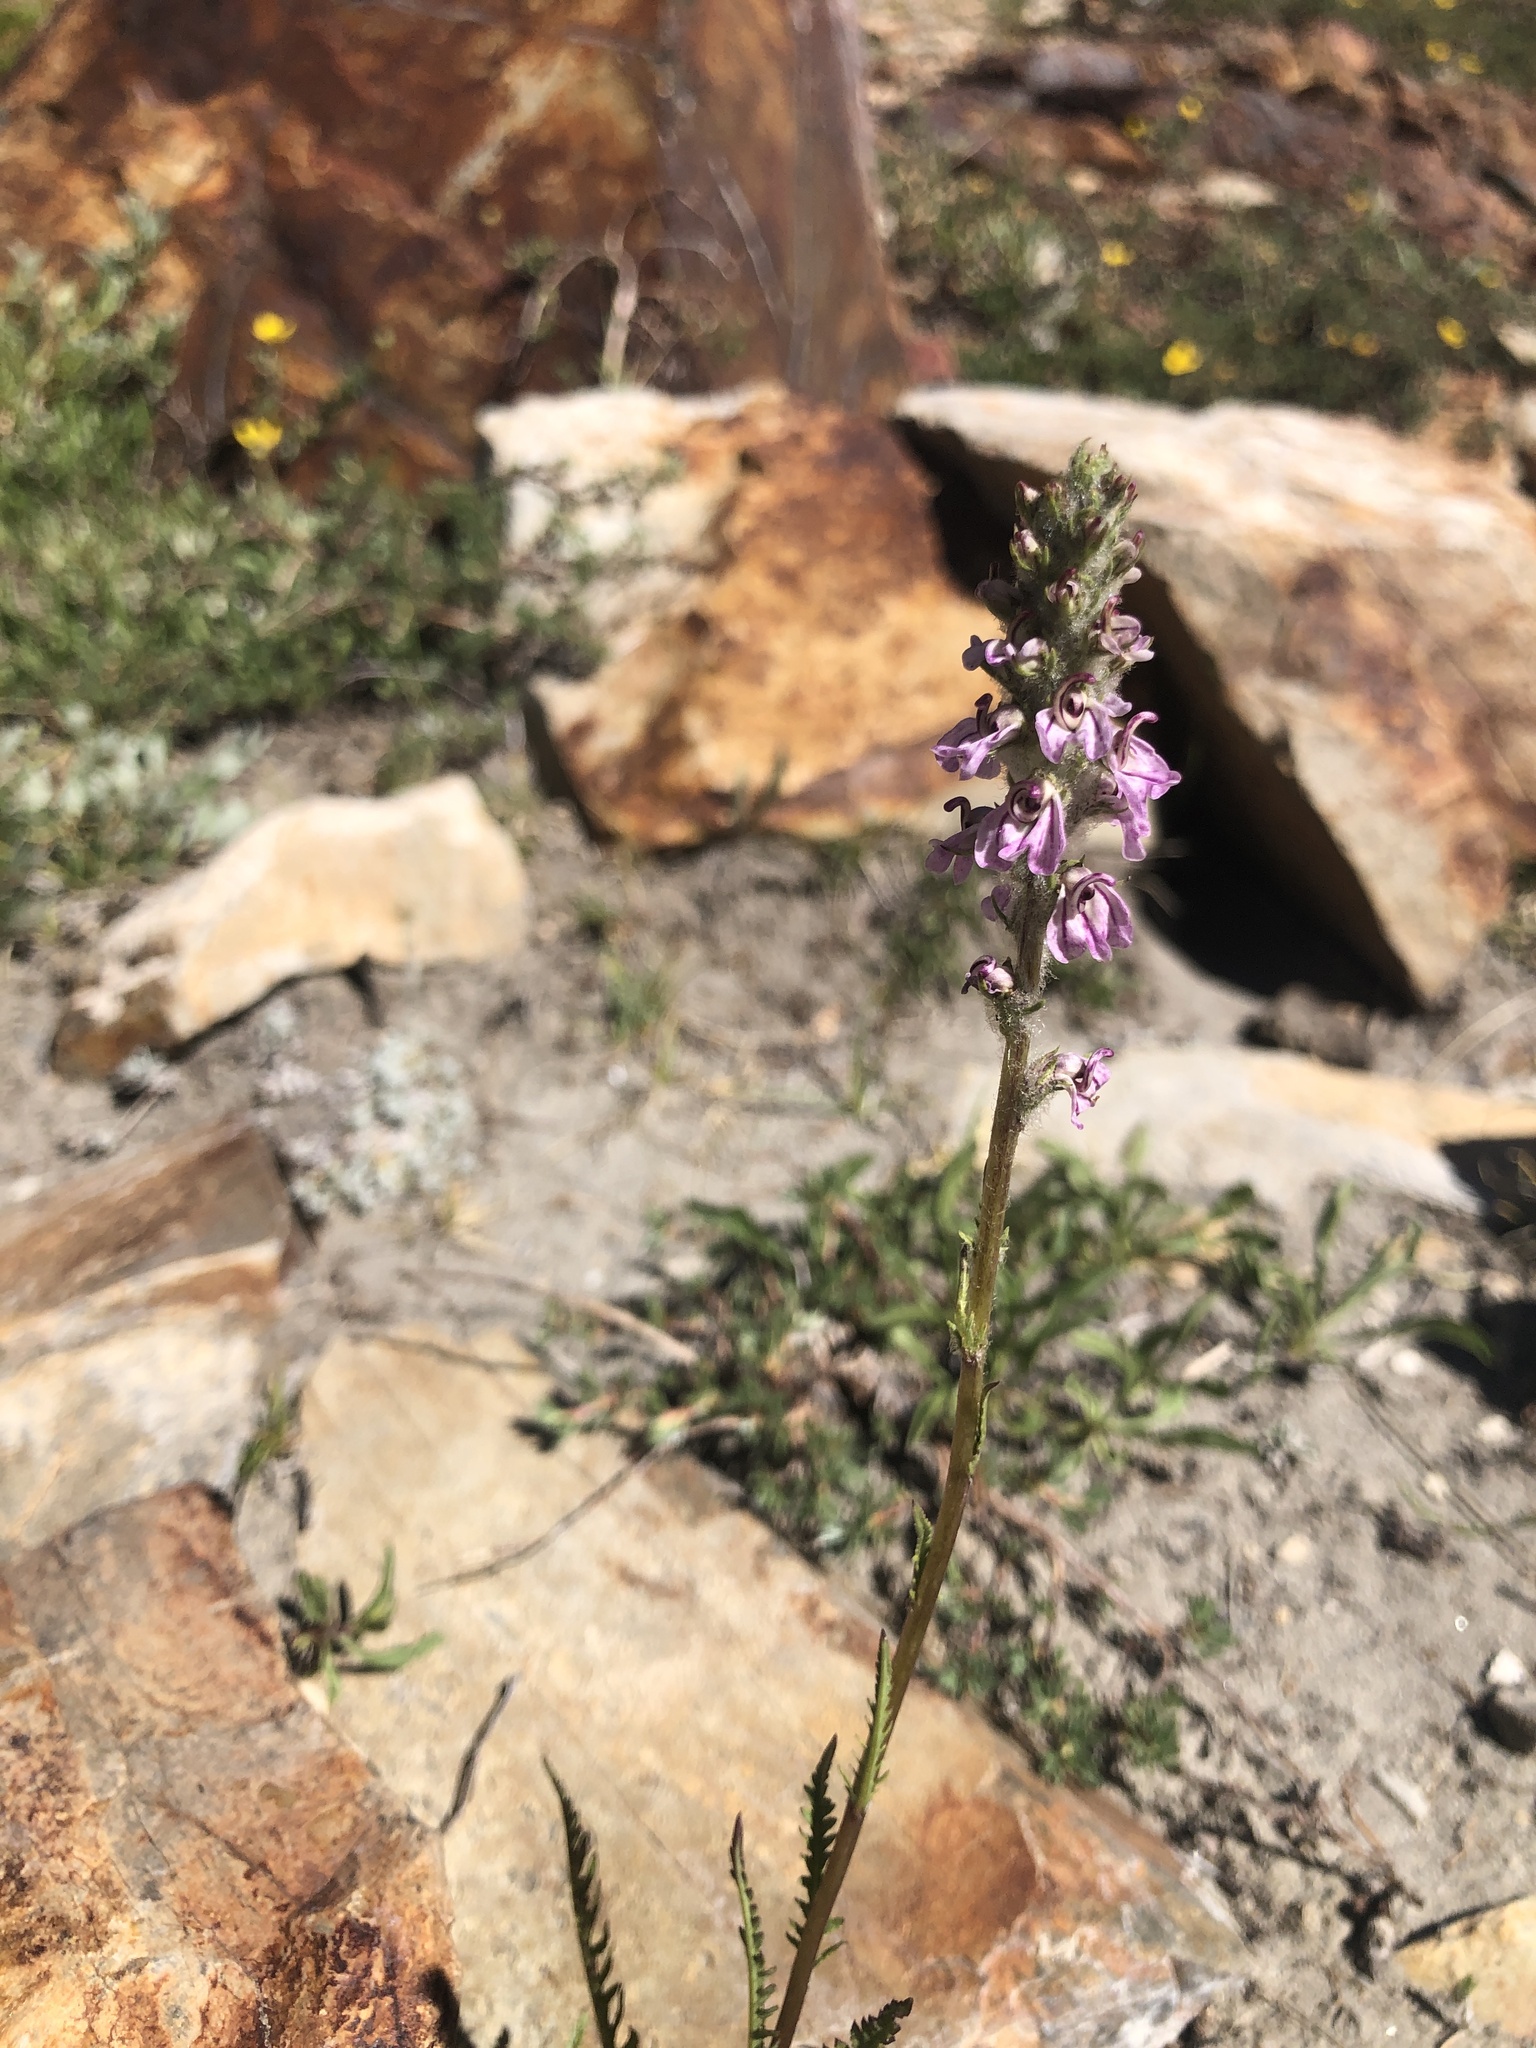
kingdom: Plantae
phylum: Tracheophyta
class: Magnoliopsida
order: Lamiales
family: Orobanchaceae
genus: Pedicularis
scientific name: Pedicularis attollens
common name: Slender pedicularis
